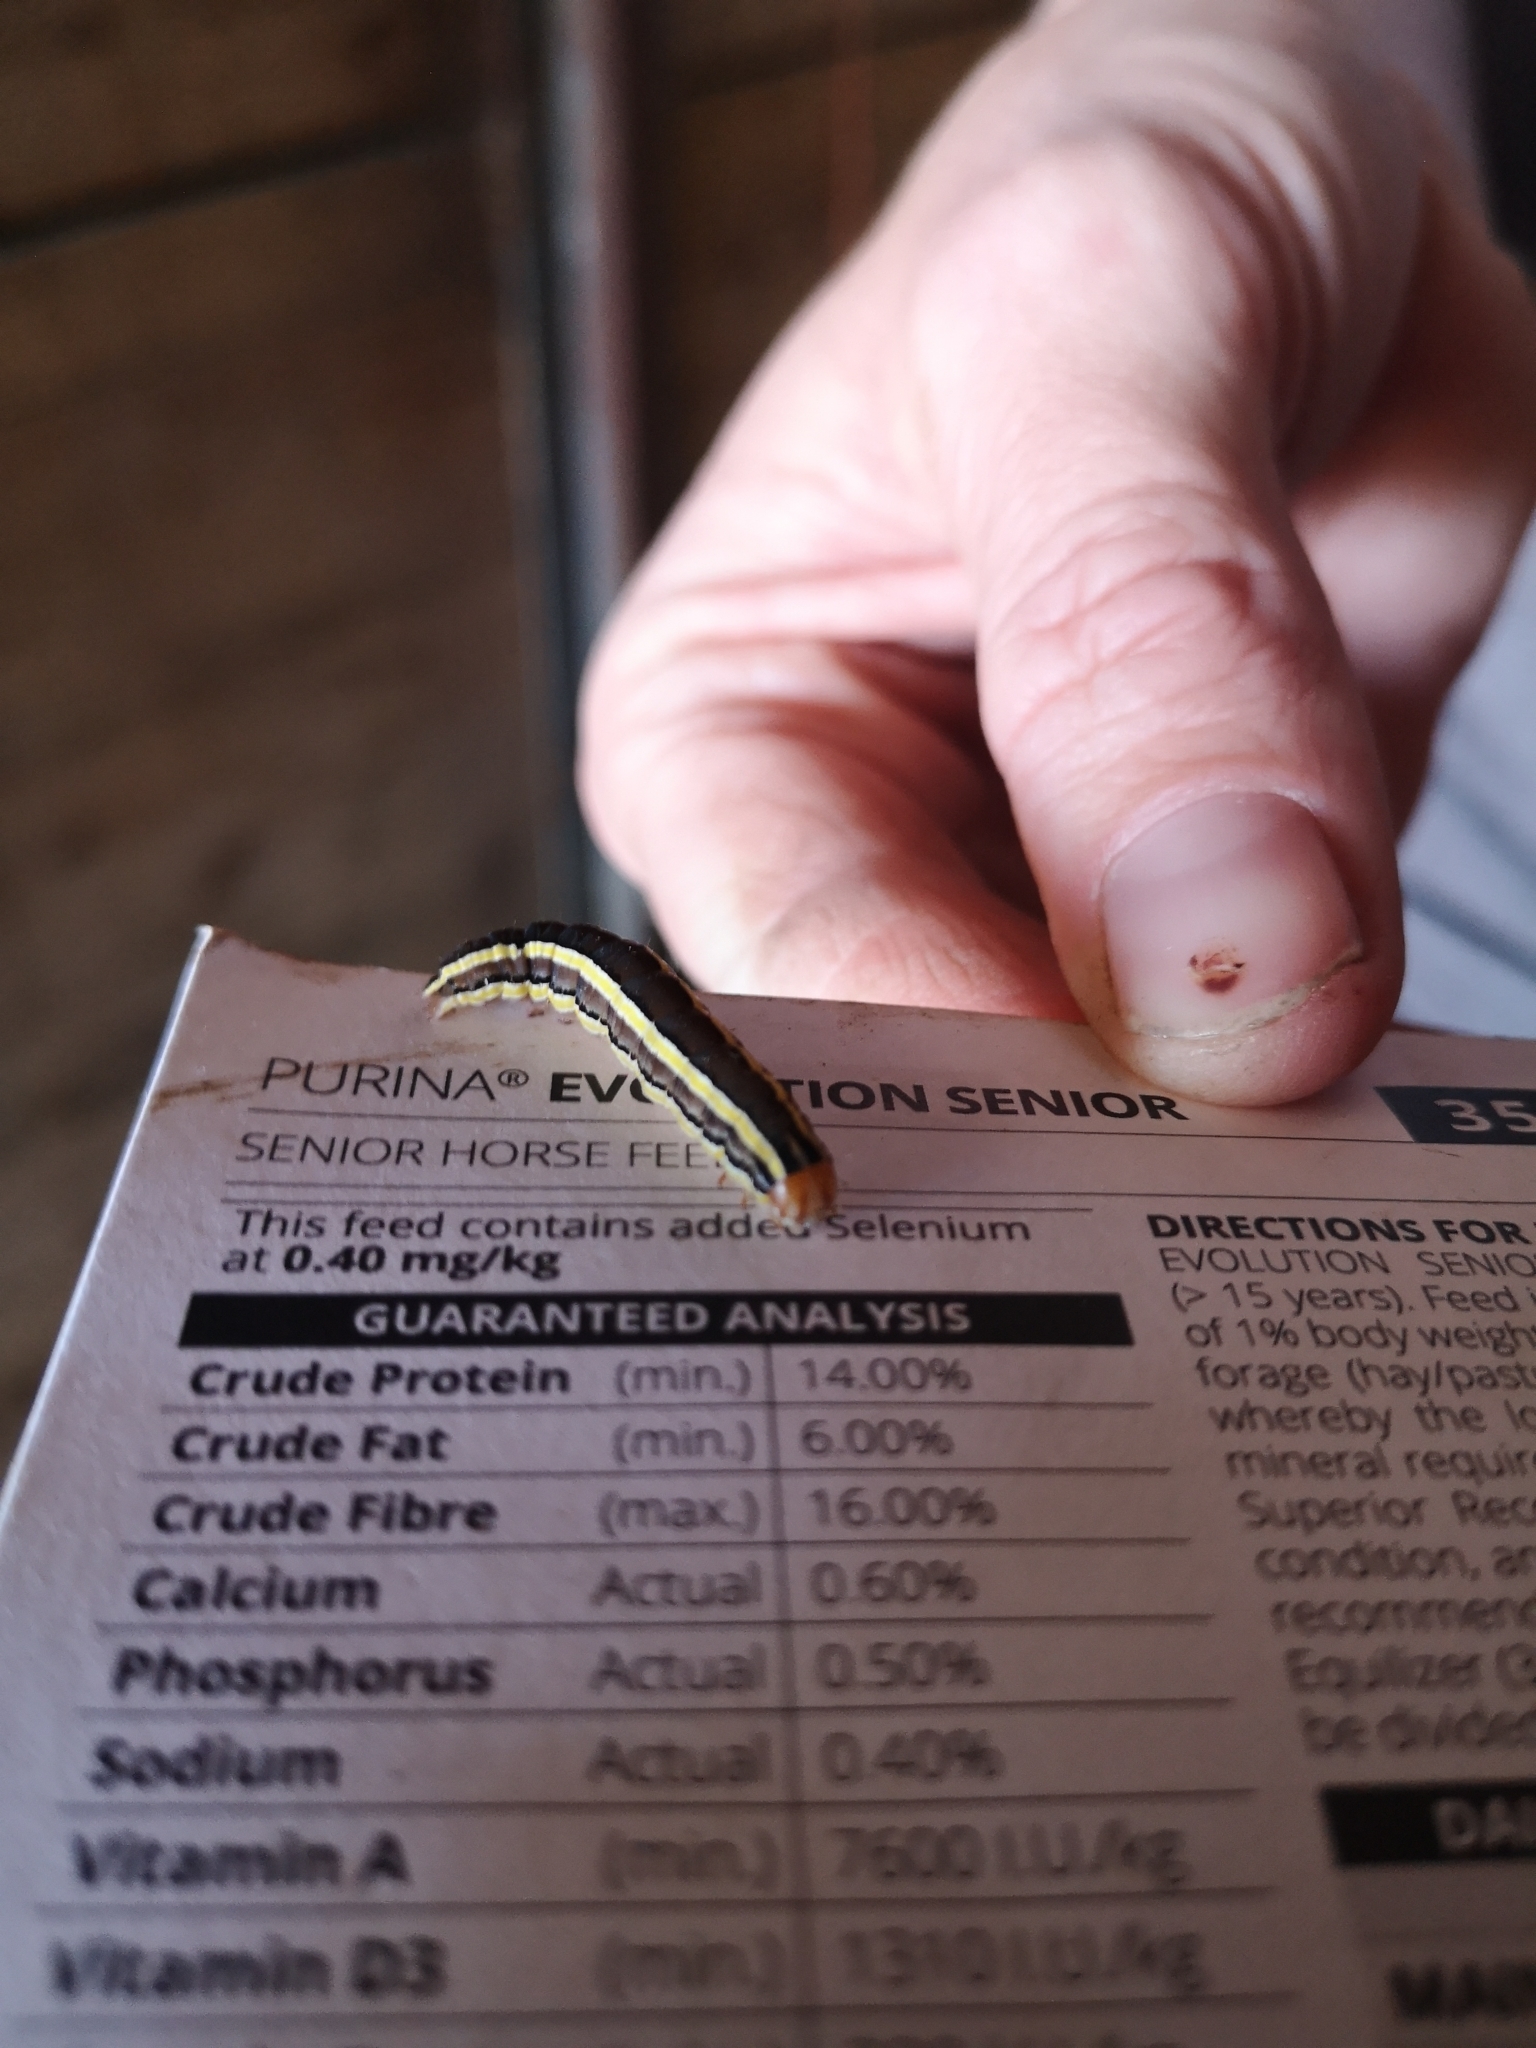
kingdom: Animalia
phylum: Arthropoda
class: Insecta
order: Lepidoptera
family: Noctuidae
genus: Trichordestra
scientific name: Trichordestra legitima
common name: Striped garden caterpillar
